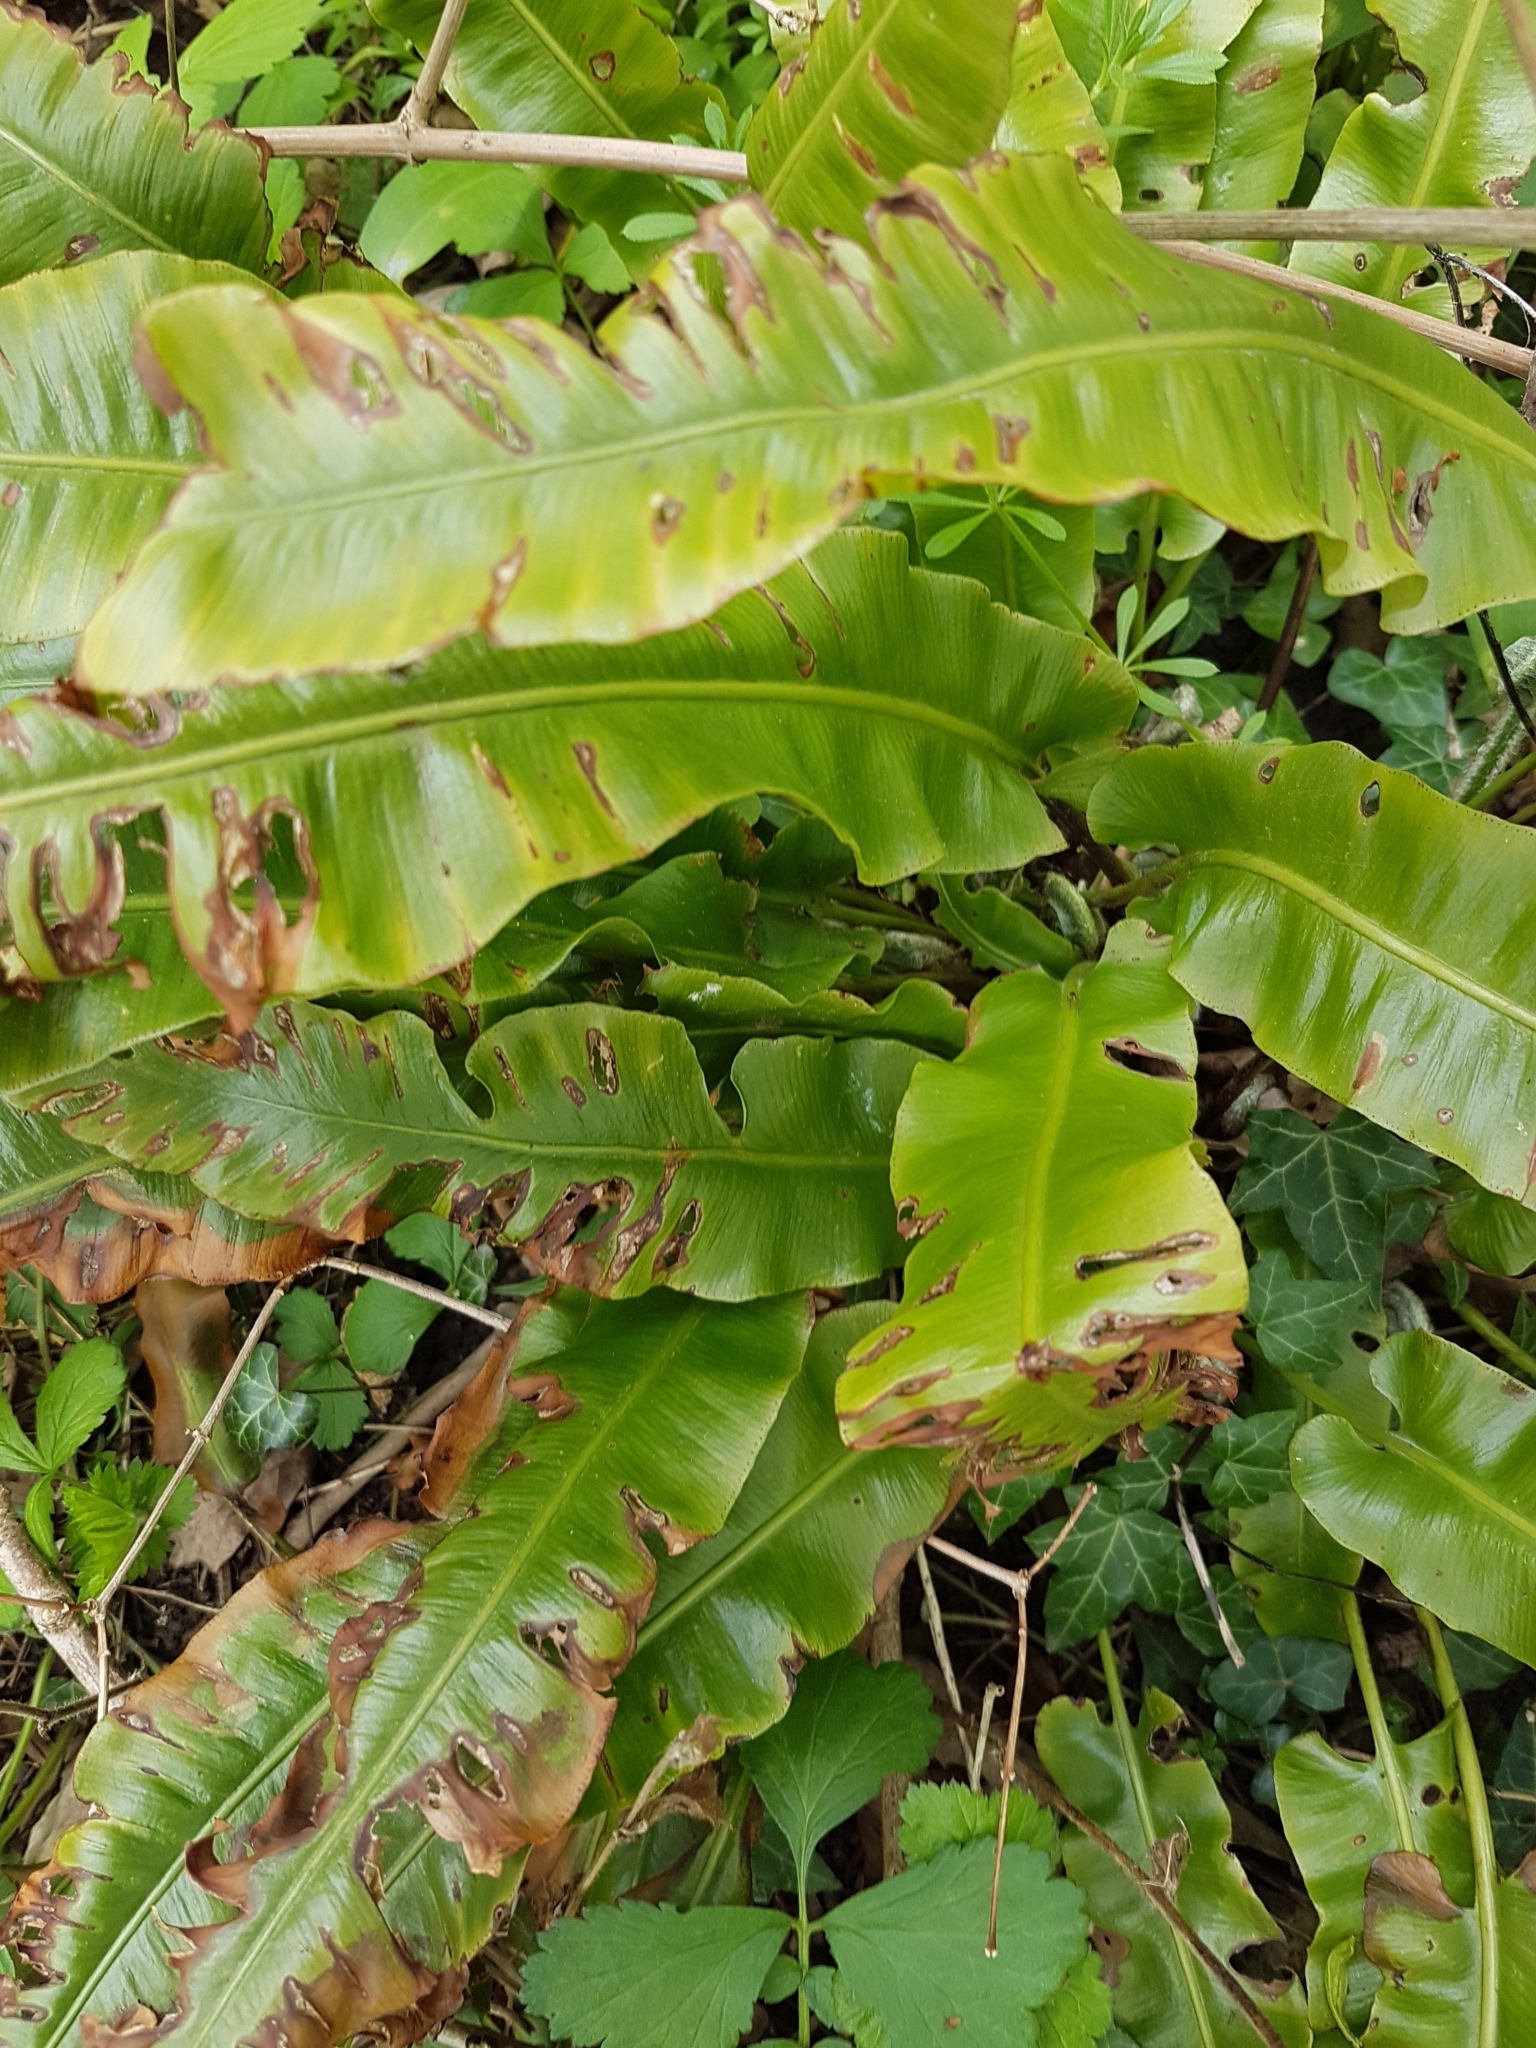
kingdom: Plantae
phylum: Tracheophyta
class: Polypodiopsida
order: Polypodiales
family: Aspleniaceae
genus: Asplenium
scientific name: Asplenium scolopendrium
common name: Hart's-tongue fern
